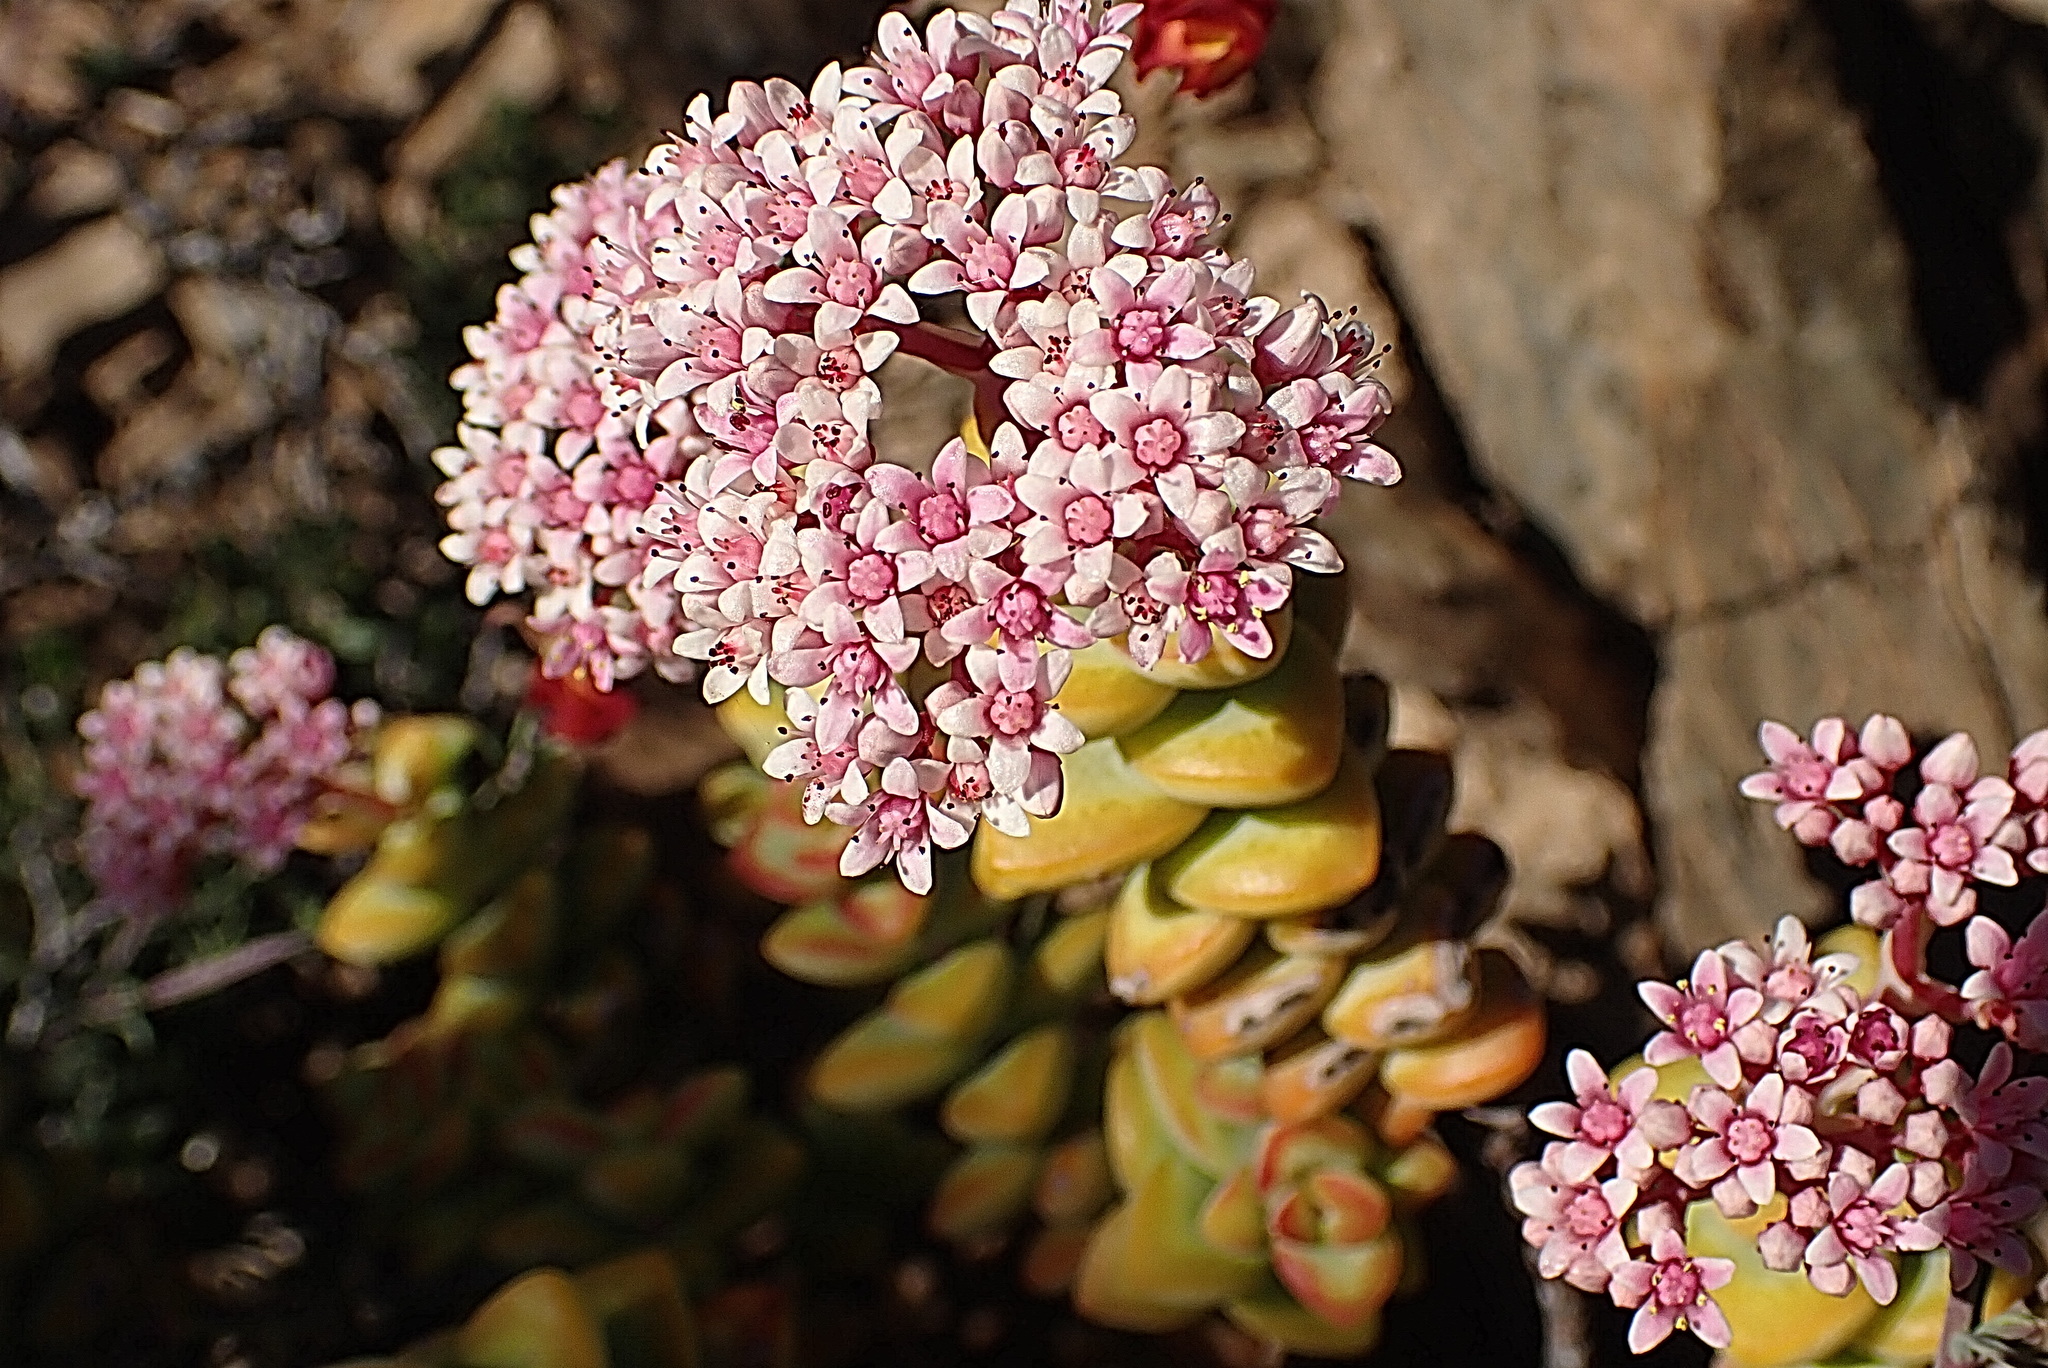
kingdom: Plantae
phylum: Tracheophyta
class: Magnoliopsida
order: Saxifragales
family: Crassulaceae
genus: Crassula
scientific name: Crassula rupestris
